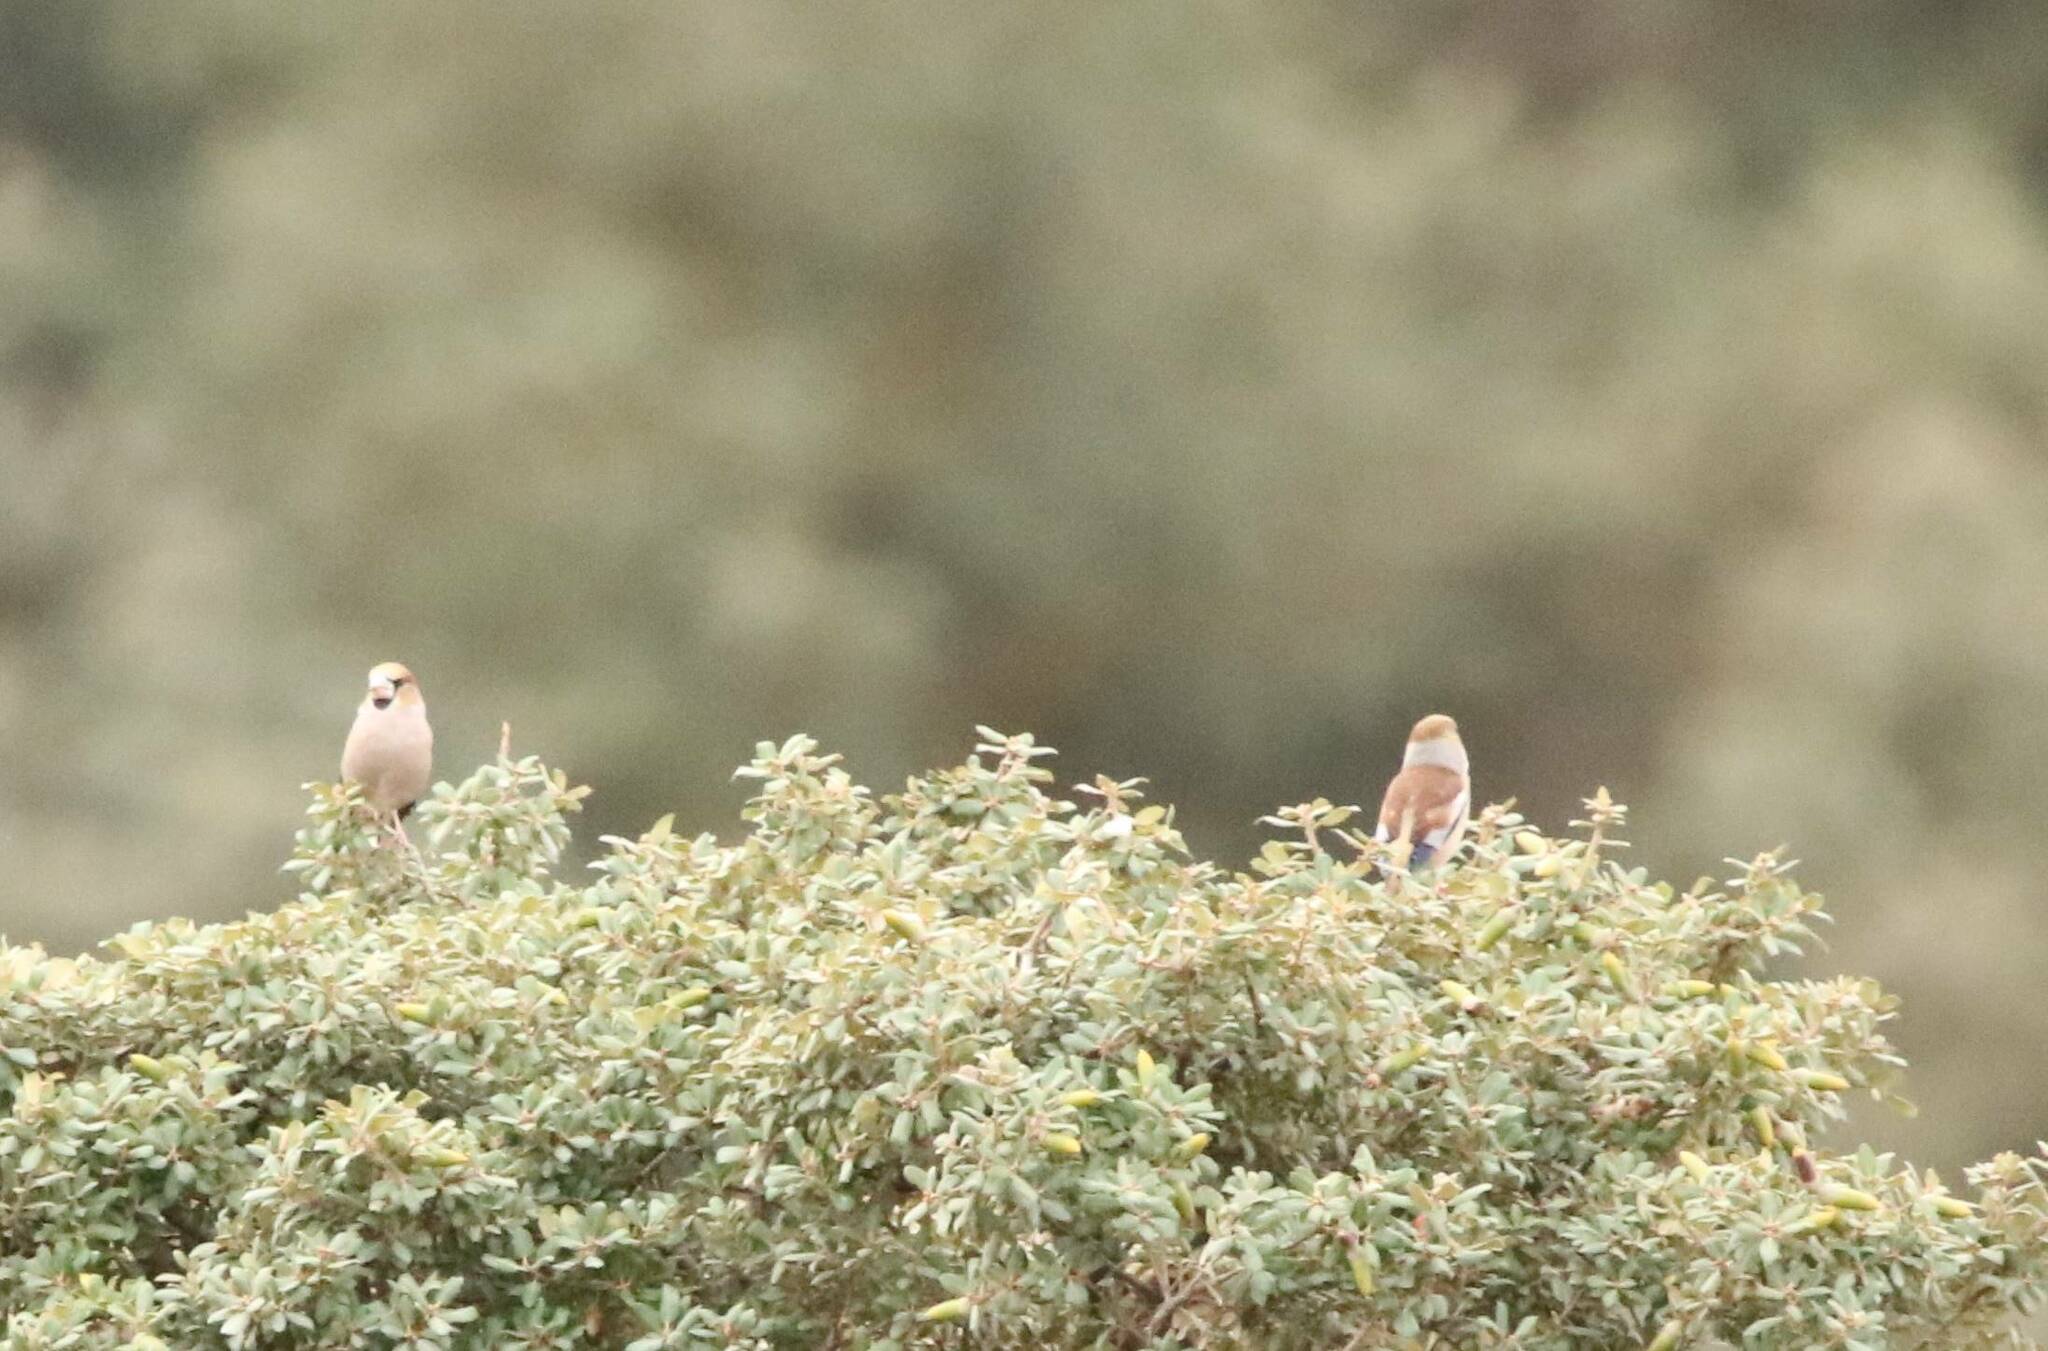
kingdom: Animalia
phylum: Chordata
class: Aves
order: Passeriformes
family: Fringillidae
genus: Coccothraustes
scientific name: Coccothraustes coccothraustes
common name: Hawfinch
